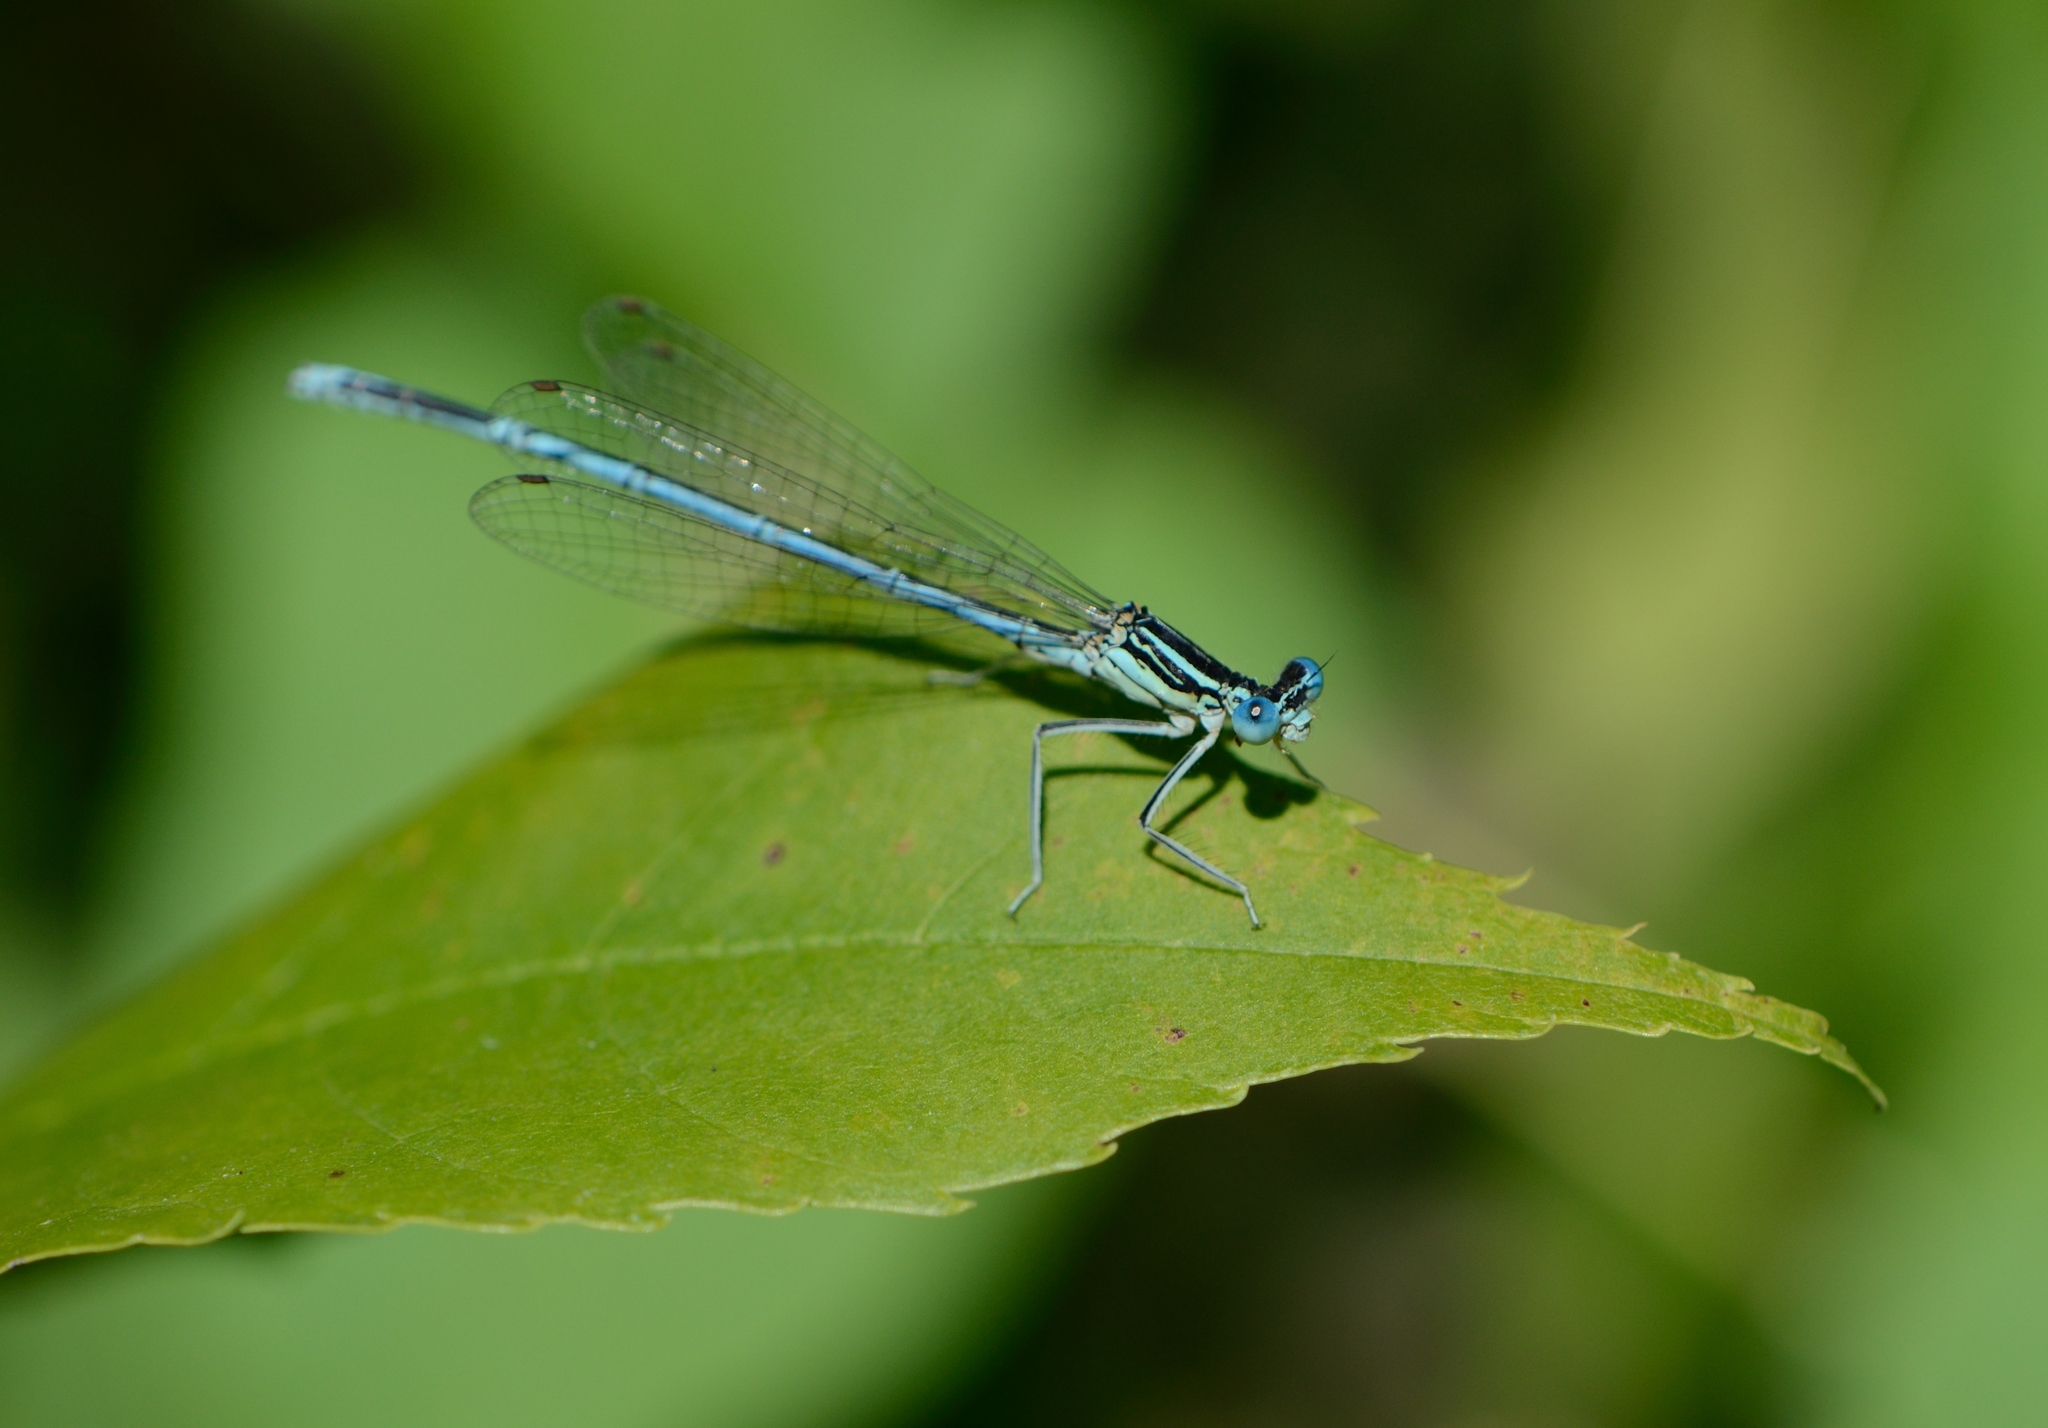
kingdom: Animalia
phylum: Arthropoda
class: Insecta
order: Odonata
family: Platycnemididae
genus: Platycnemis
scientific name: Platycnemis pennipes
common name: White-legged damselfly
